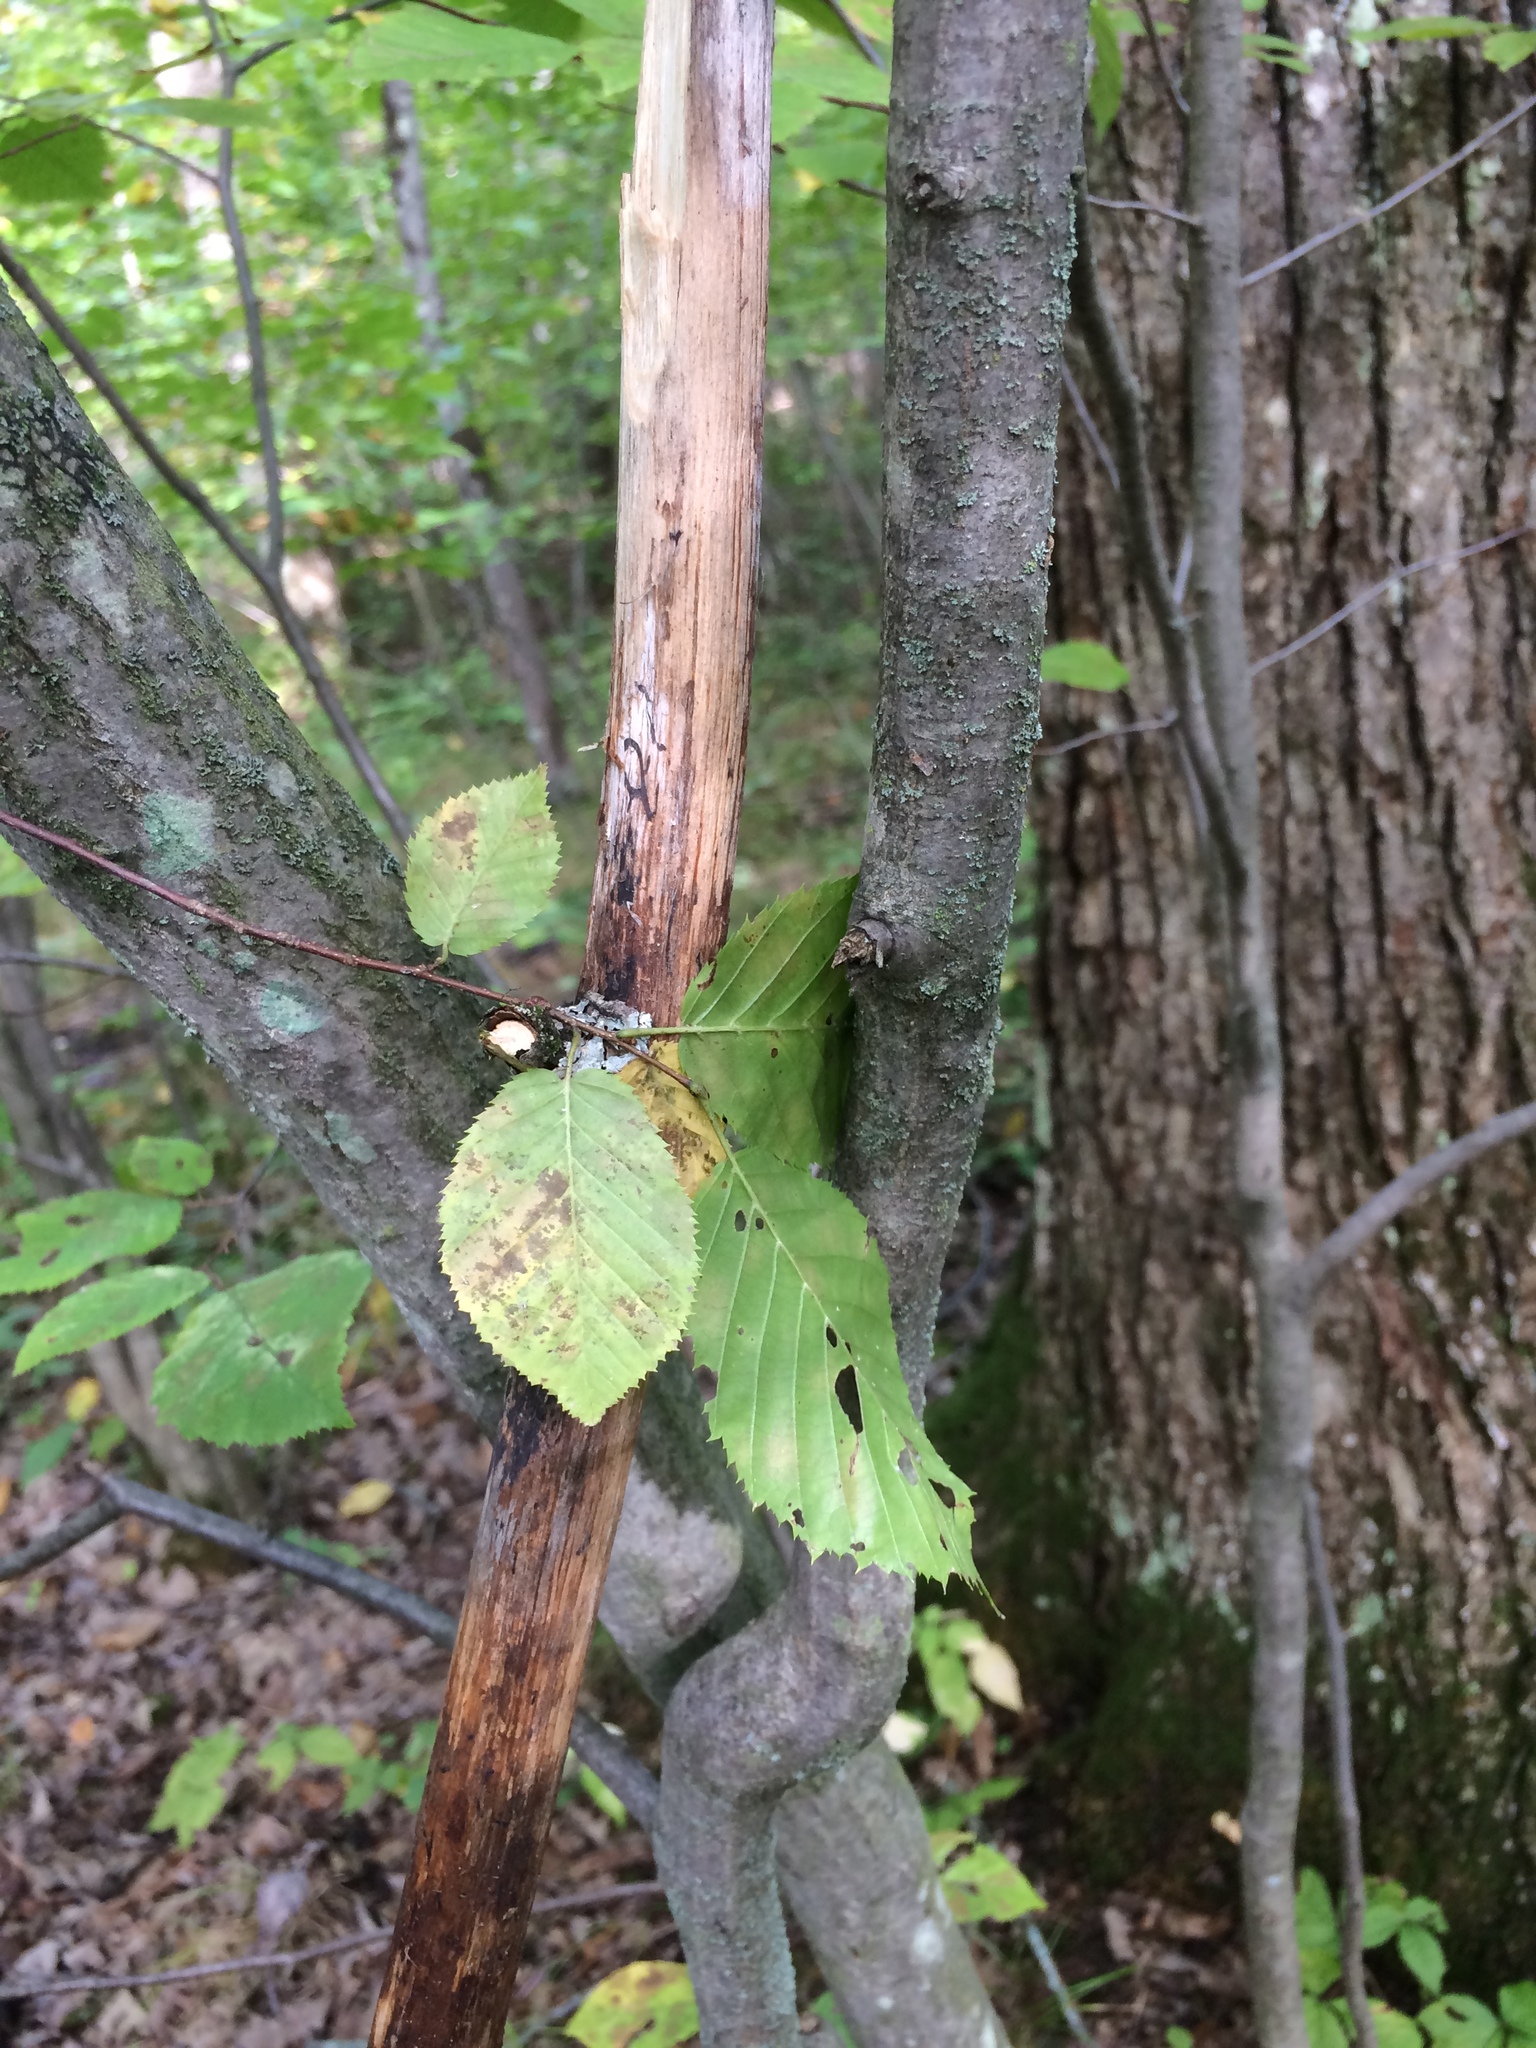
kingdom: Plantae
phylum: Tracheophyta
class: Magnoliopsida
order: Fagales
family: Betulaceae
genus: Carpinus
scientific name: Carpinus caroliniana
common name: American hornbeam
